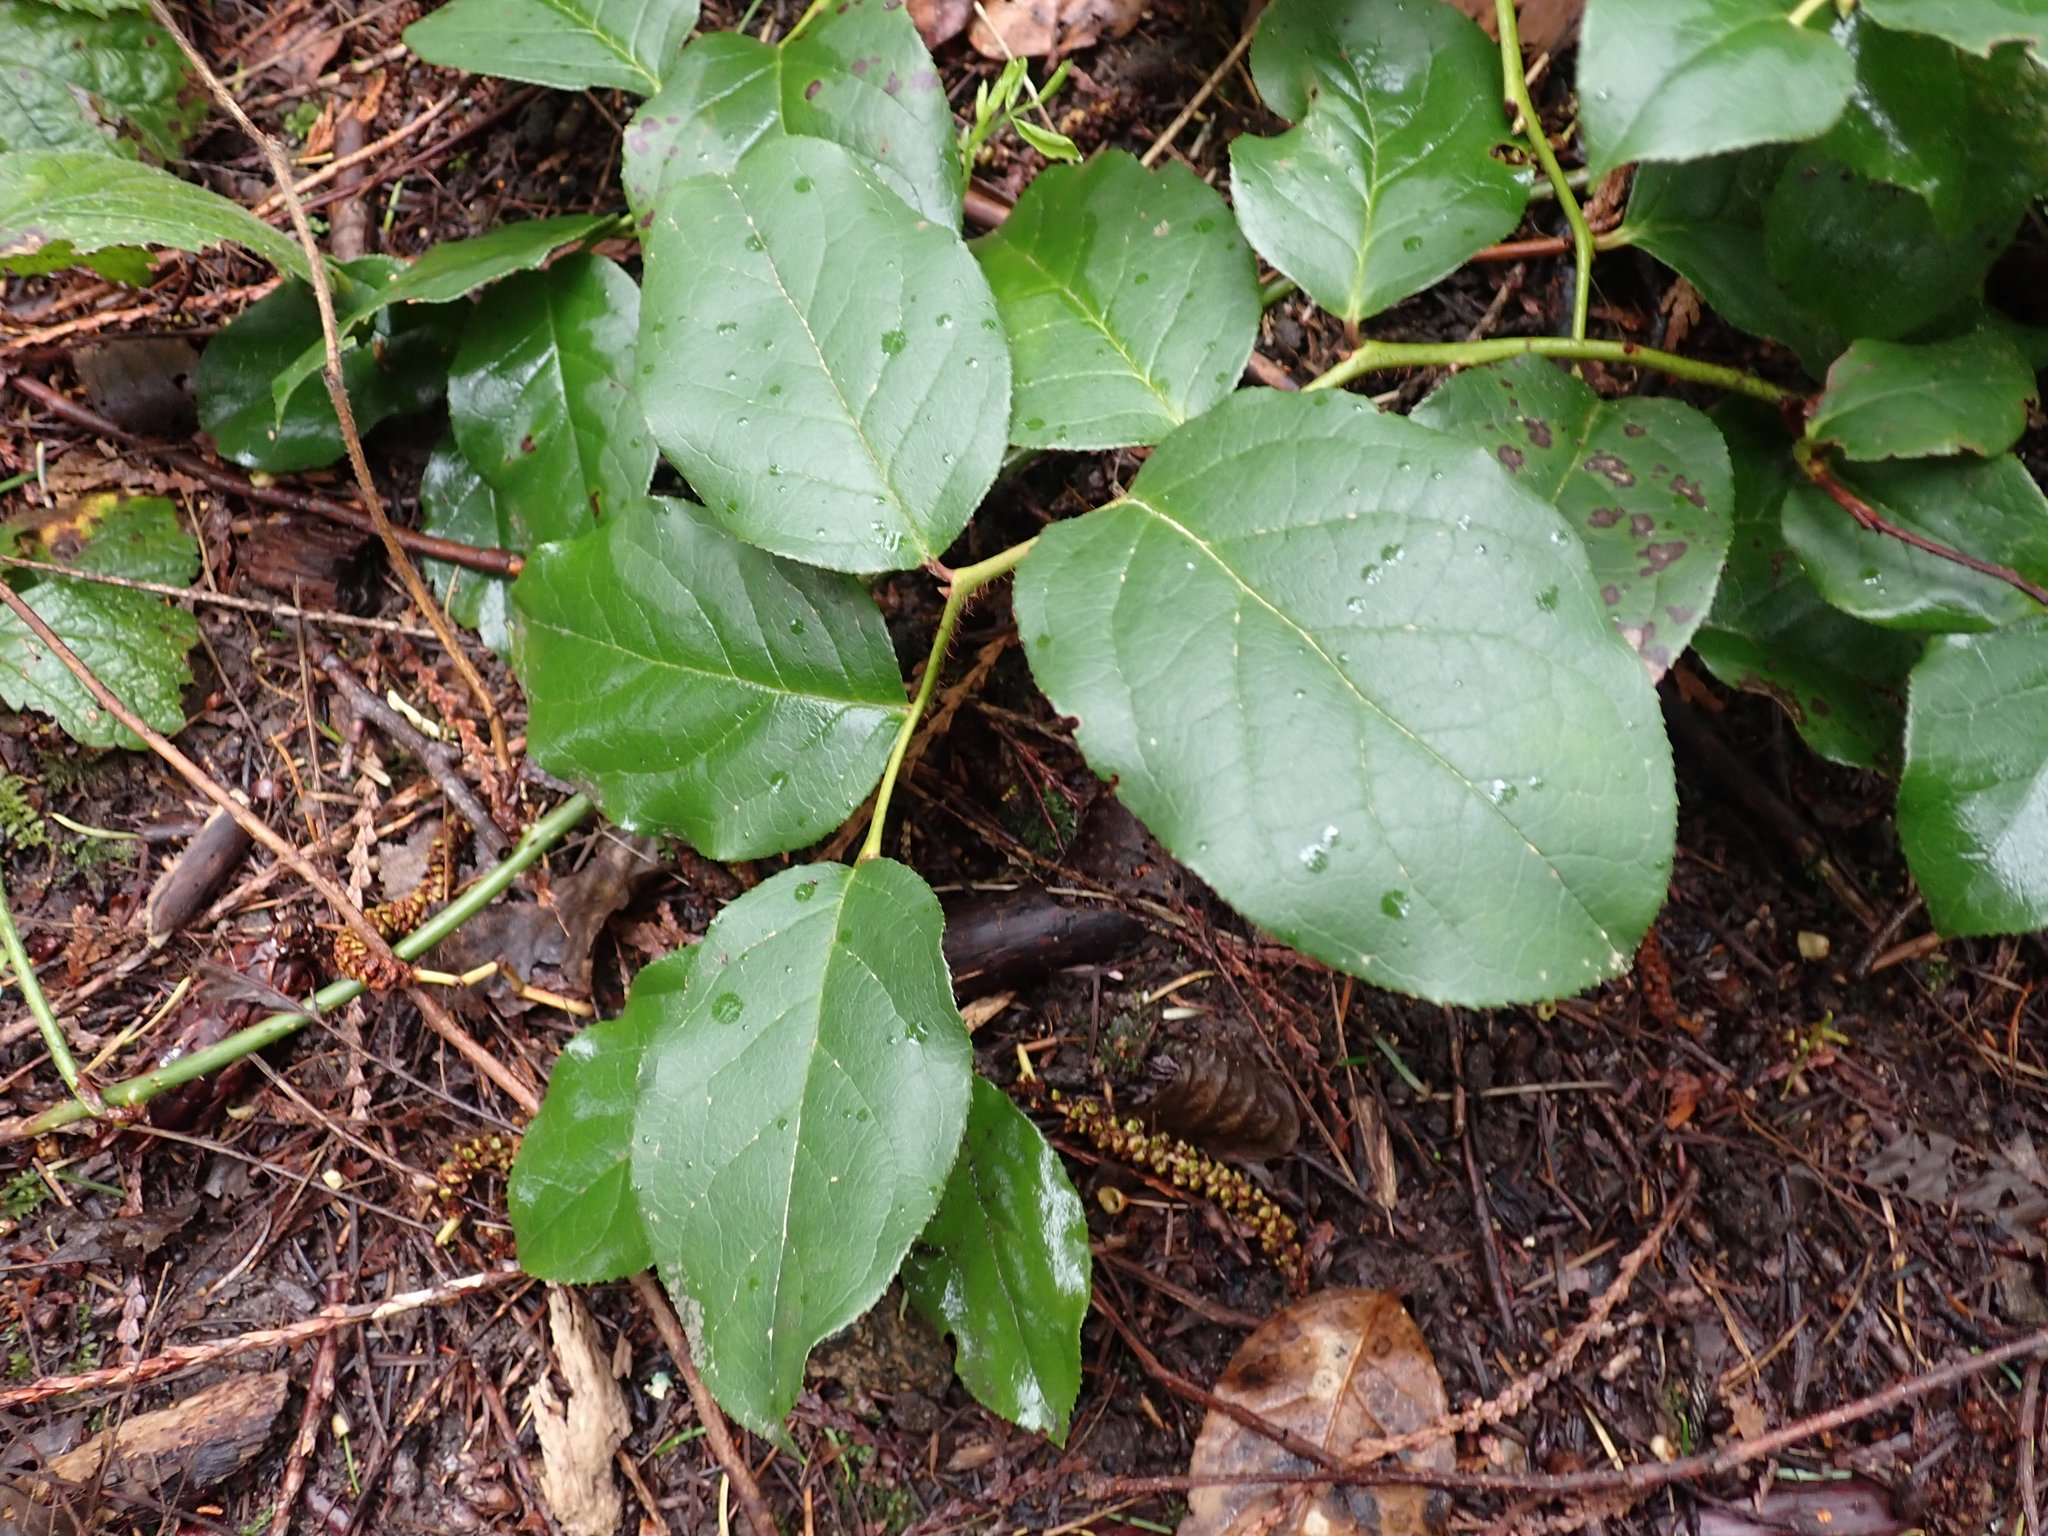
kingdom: Plantae
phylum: Tracheophyta
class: Magnoliopsida
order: Ericales
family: Ericaceae
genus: Gaultheria
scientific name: Gaultheria shallon
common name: Shallon
